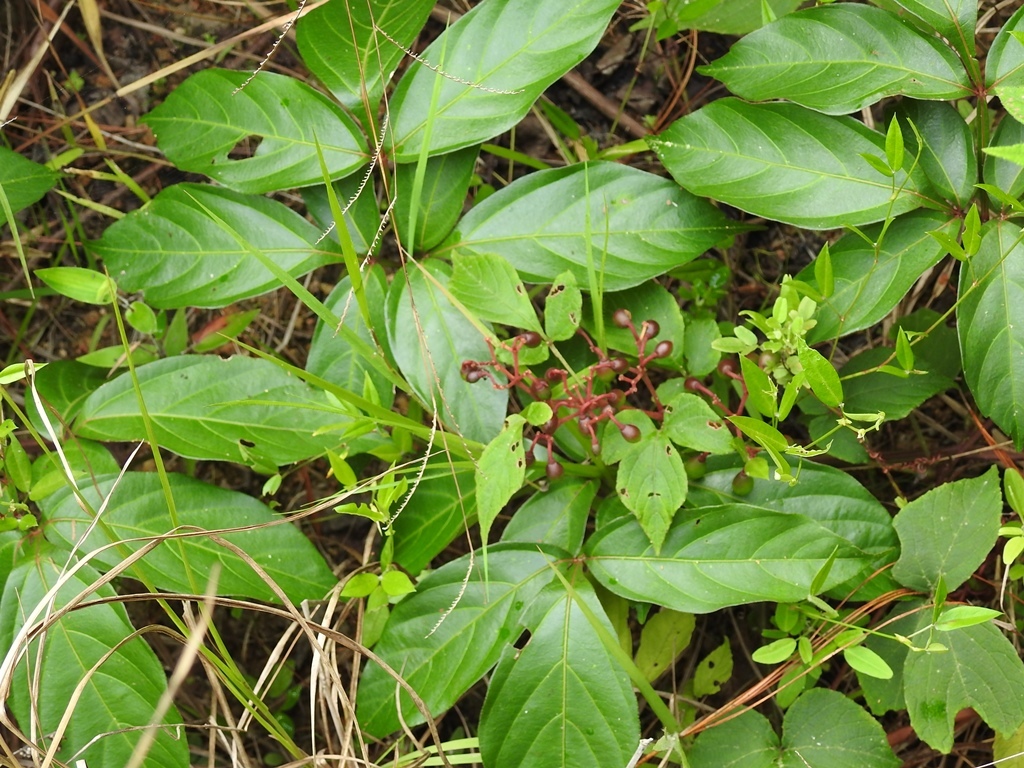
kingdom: Plantae
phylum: Tracheophyta
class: Magnoliopsida
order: Vitales
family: Vitaceae
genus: Cissus
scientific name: Cissus erosa
